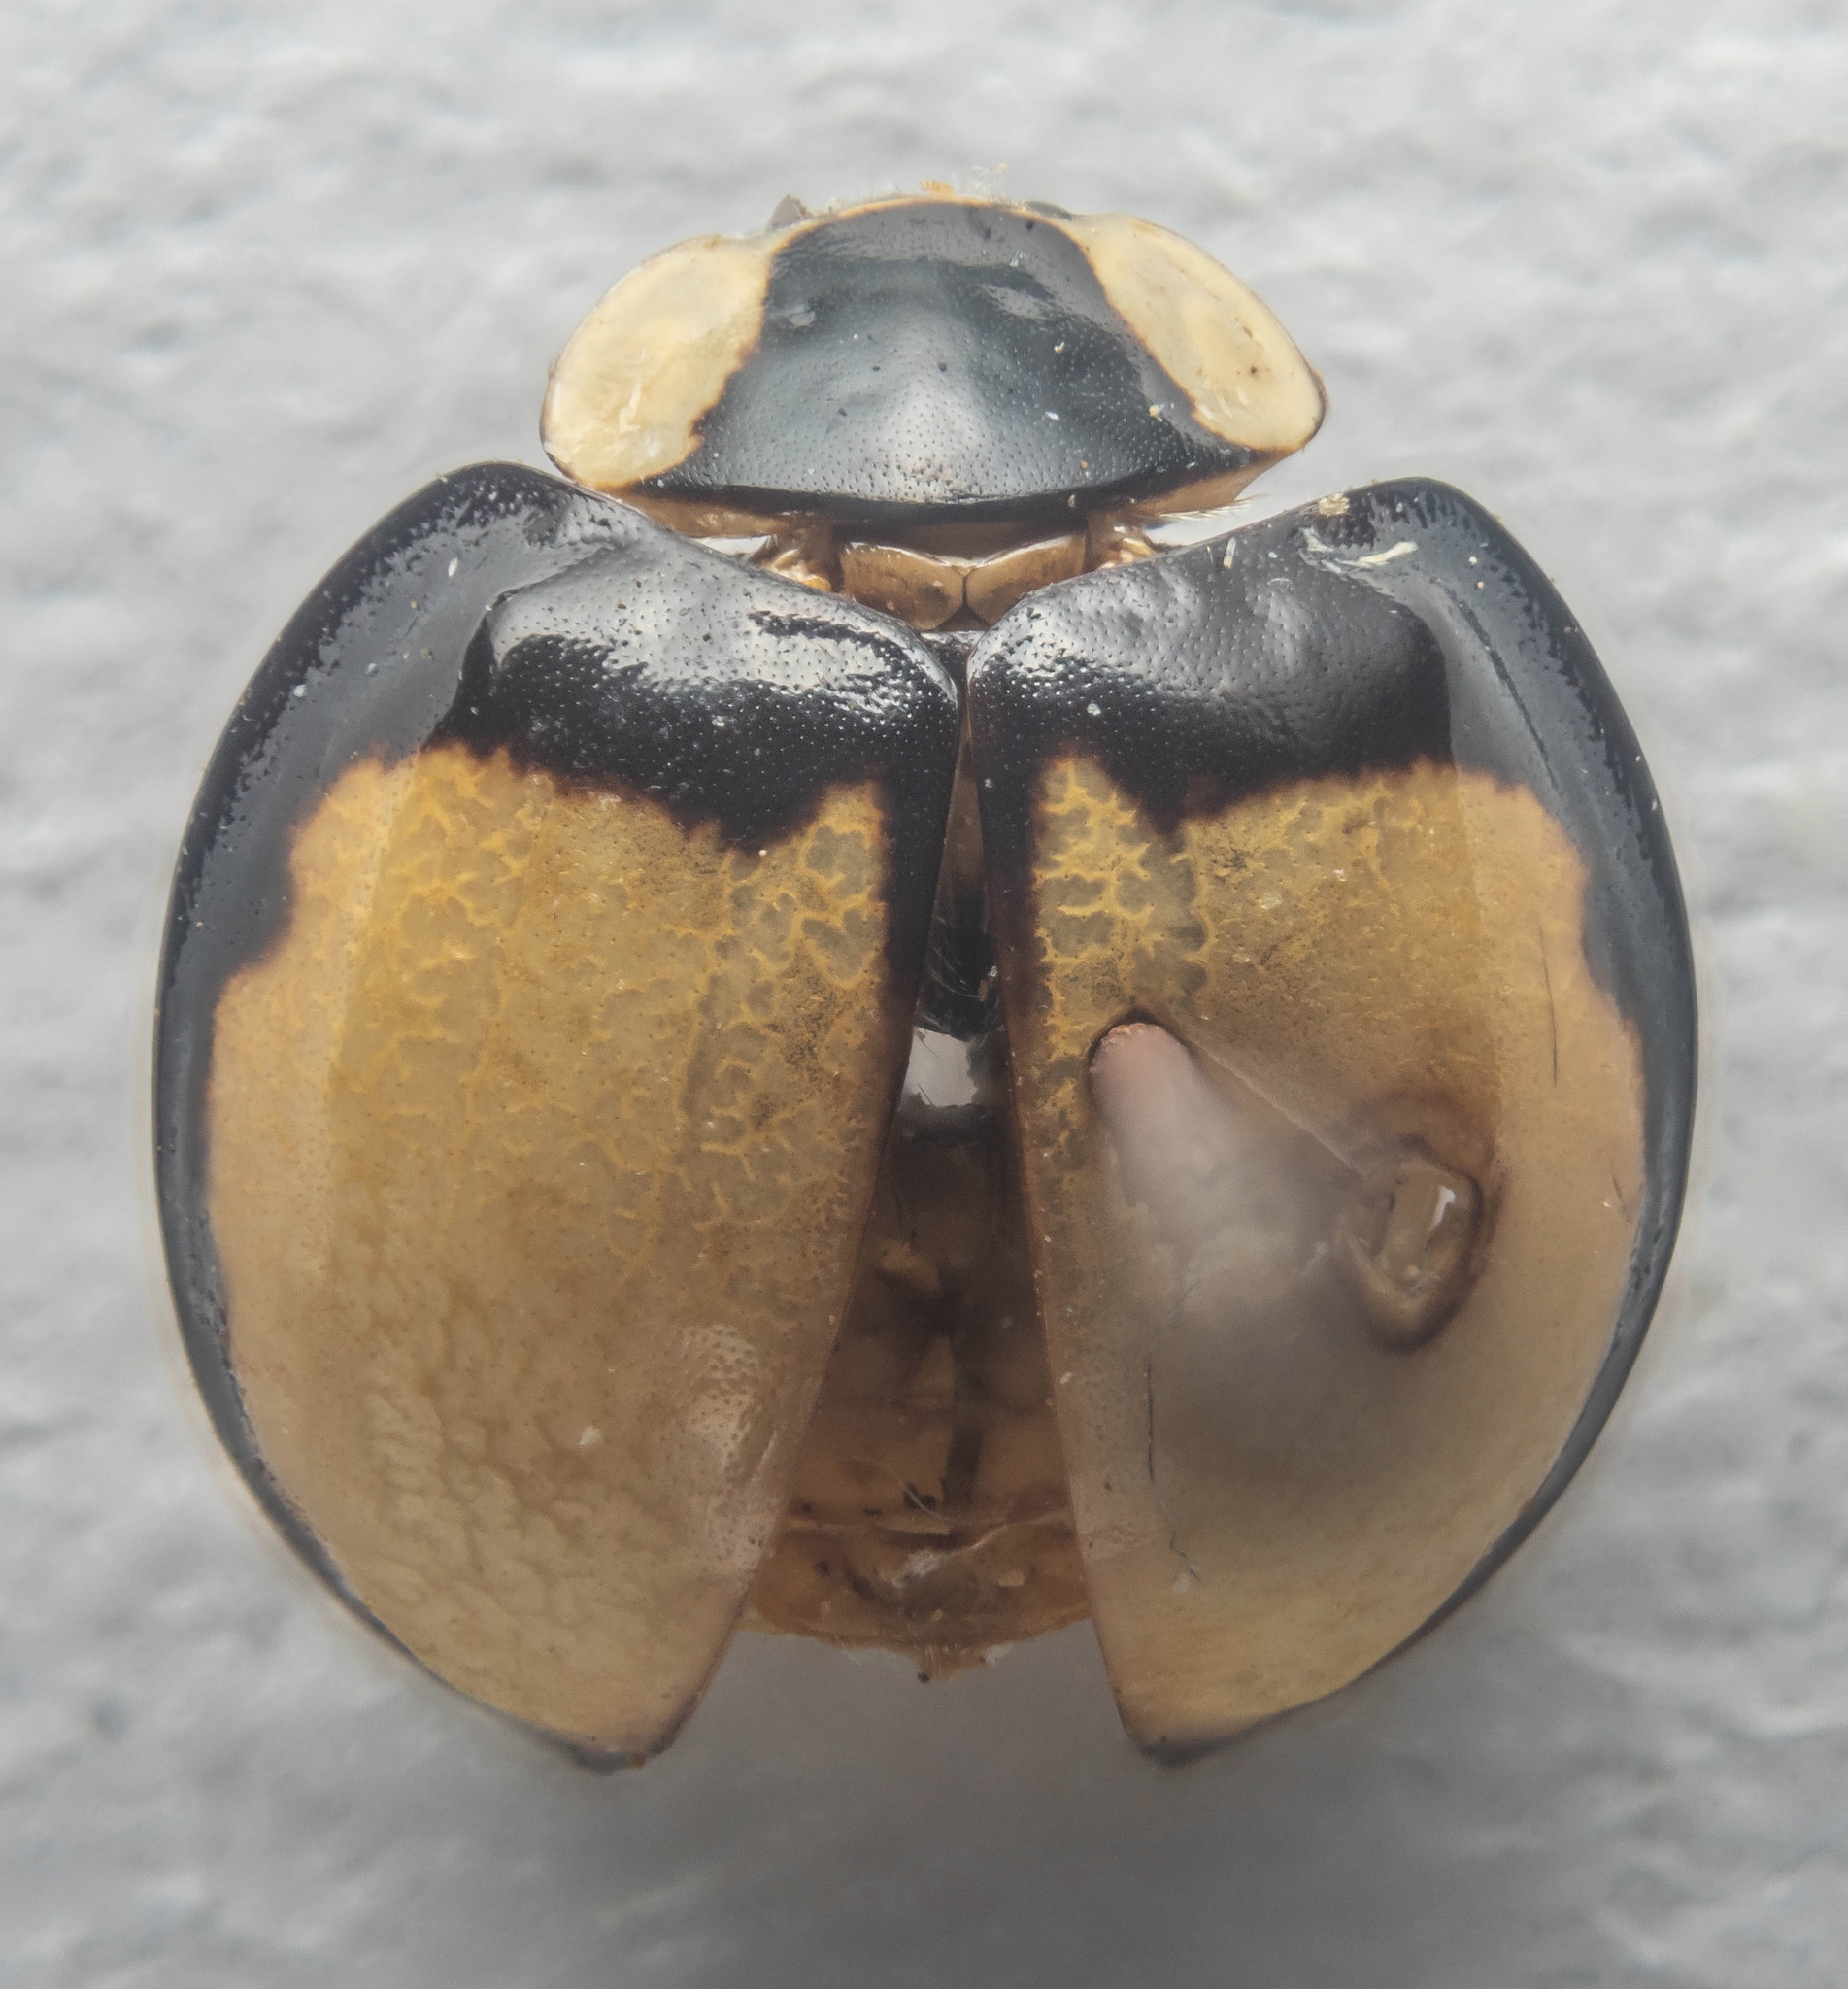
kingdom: Animalia
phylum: Arthropoda
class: Insecta
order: Coleoptera
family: Coccinellidae
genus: Harmonia
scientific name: Harmonia axyridis
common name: Harlequin ladybird
